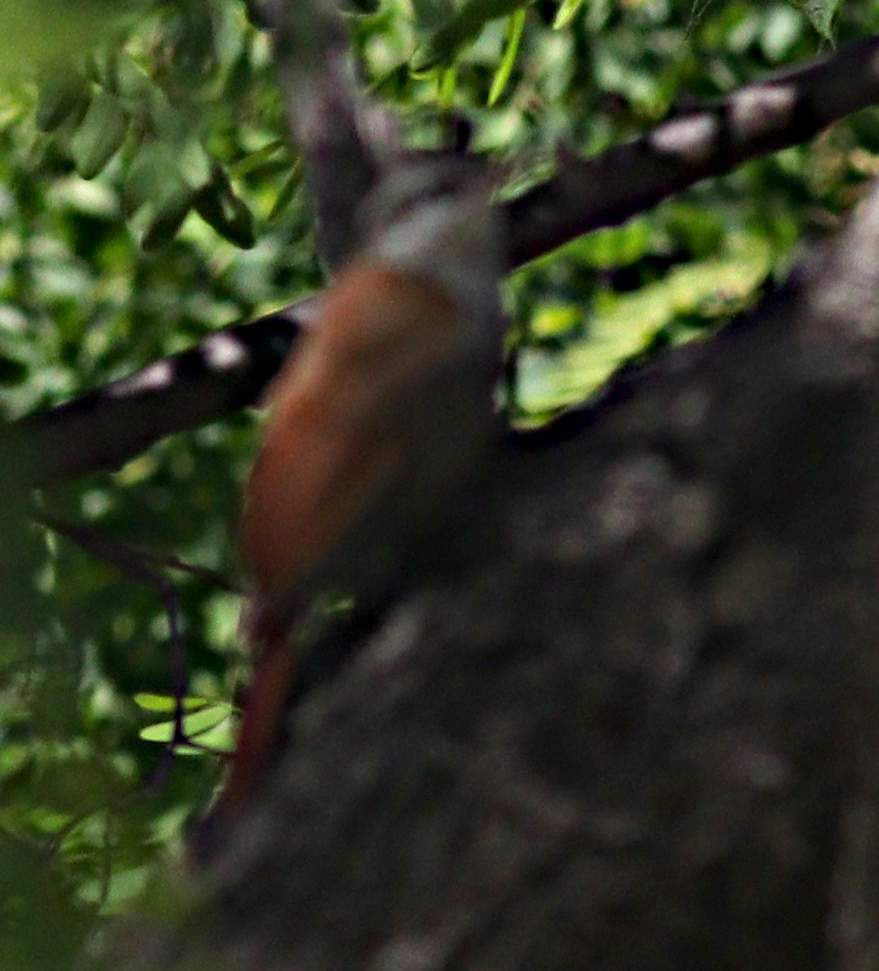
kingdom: Animalia
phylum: Chordata
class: Aves
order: Passeriformes
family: Furnariidae
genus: Lepidocolaptes
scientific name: Lepidocolaptes angustirostris
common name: Narrow-billed woodcreeper
